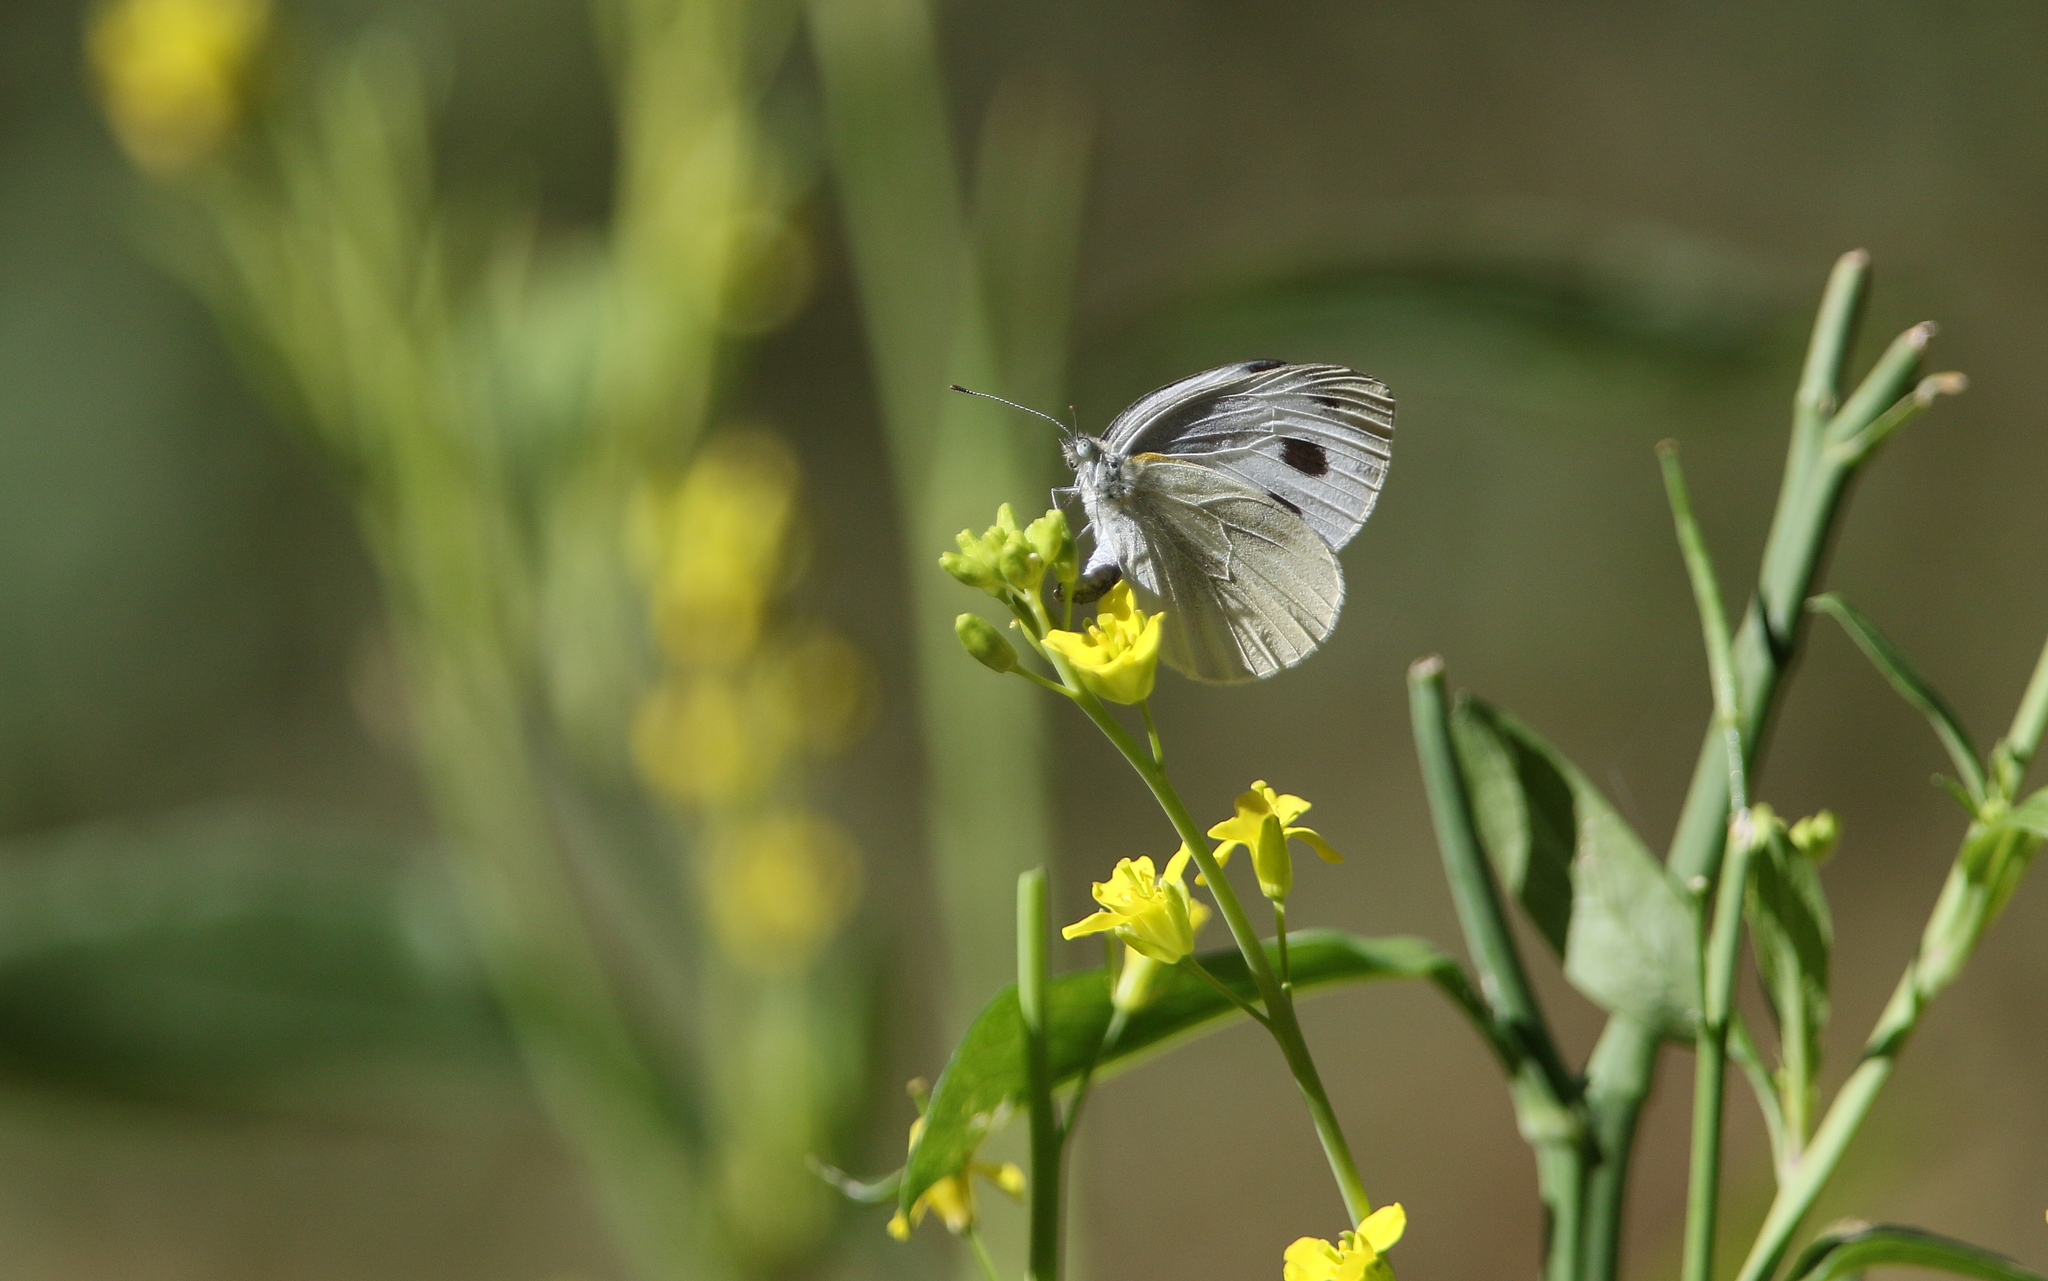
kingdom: Animalia
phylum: Arthropoda
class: Insecta
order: Lepidoptera
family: Pieridae
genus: Pieris
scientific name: Pieris canidia
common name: Indian cabbage white
